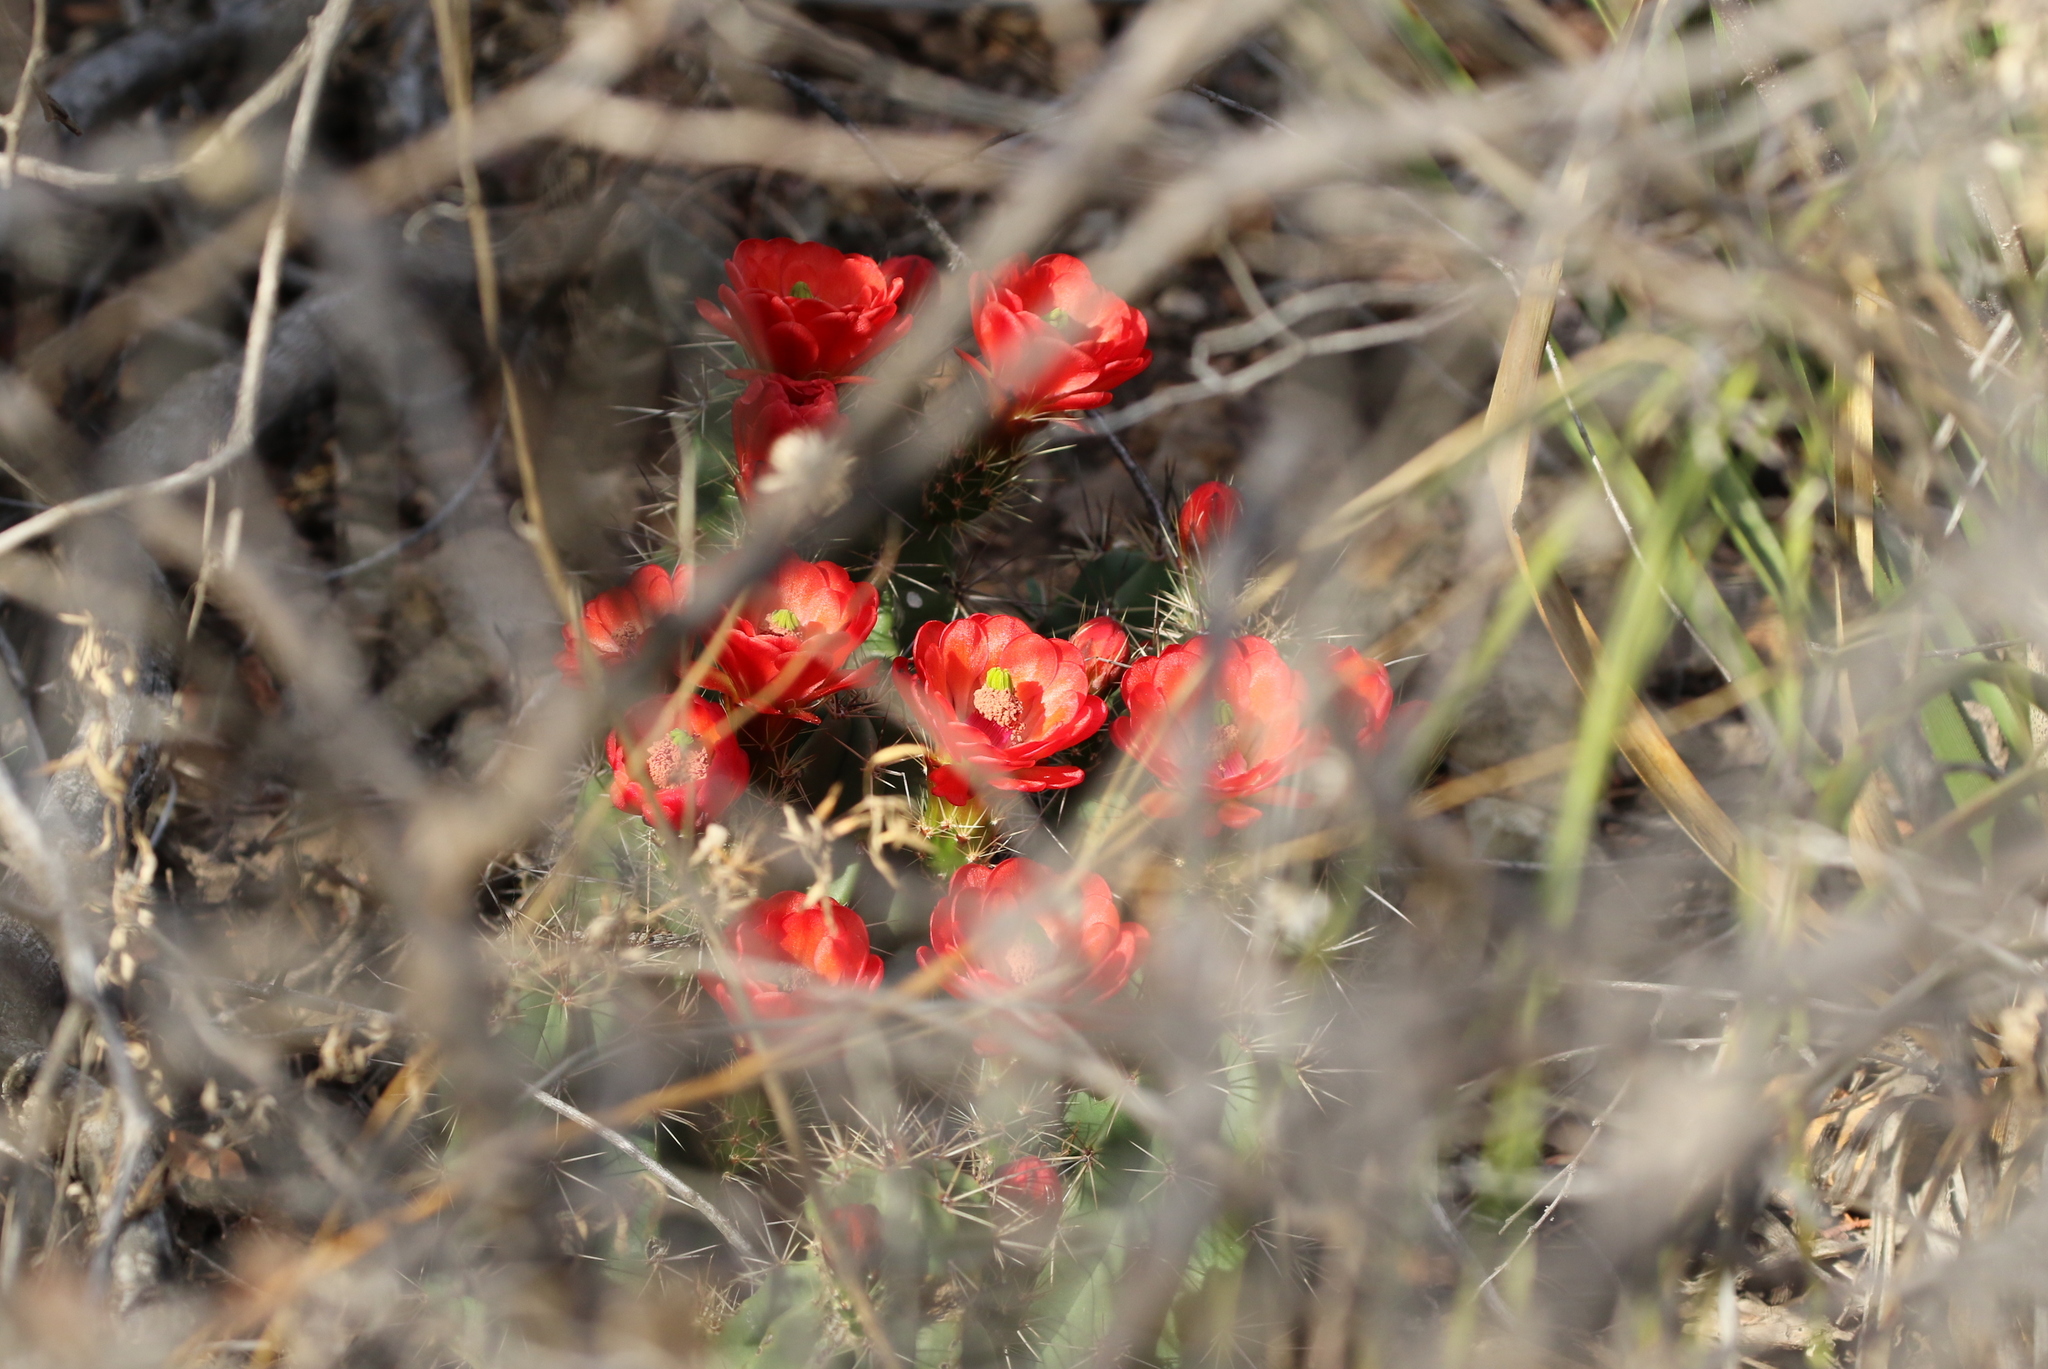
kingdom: Plantae
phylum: Tracheophyta
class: Magnoliopsida
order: Caryophyllales
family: Cactaceae
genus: Echinocereus
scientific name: Echinocereus coccineus
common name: Scarlet hedgehog cactus
